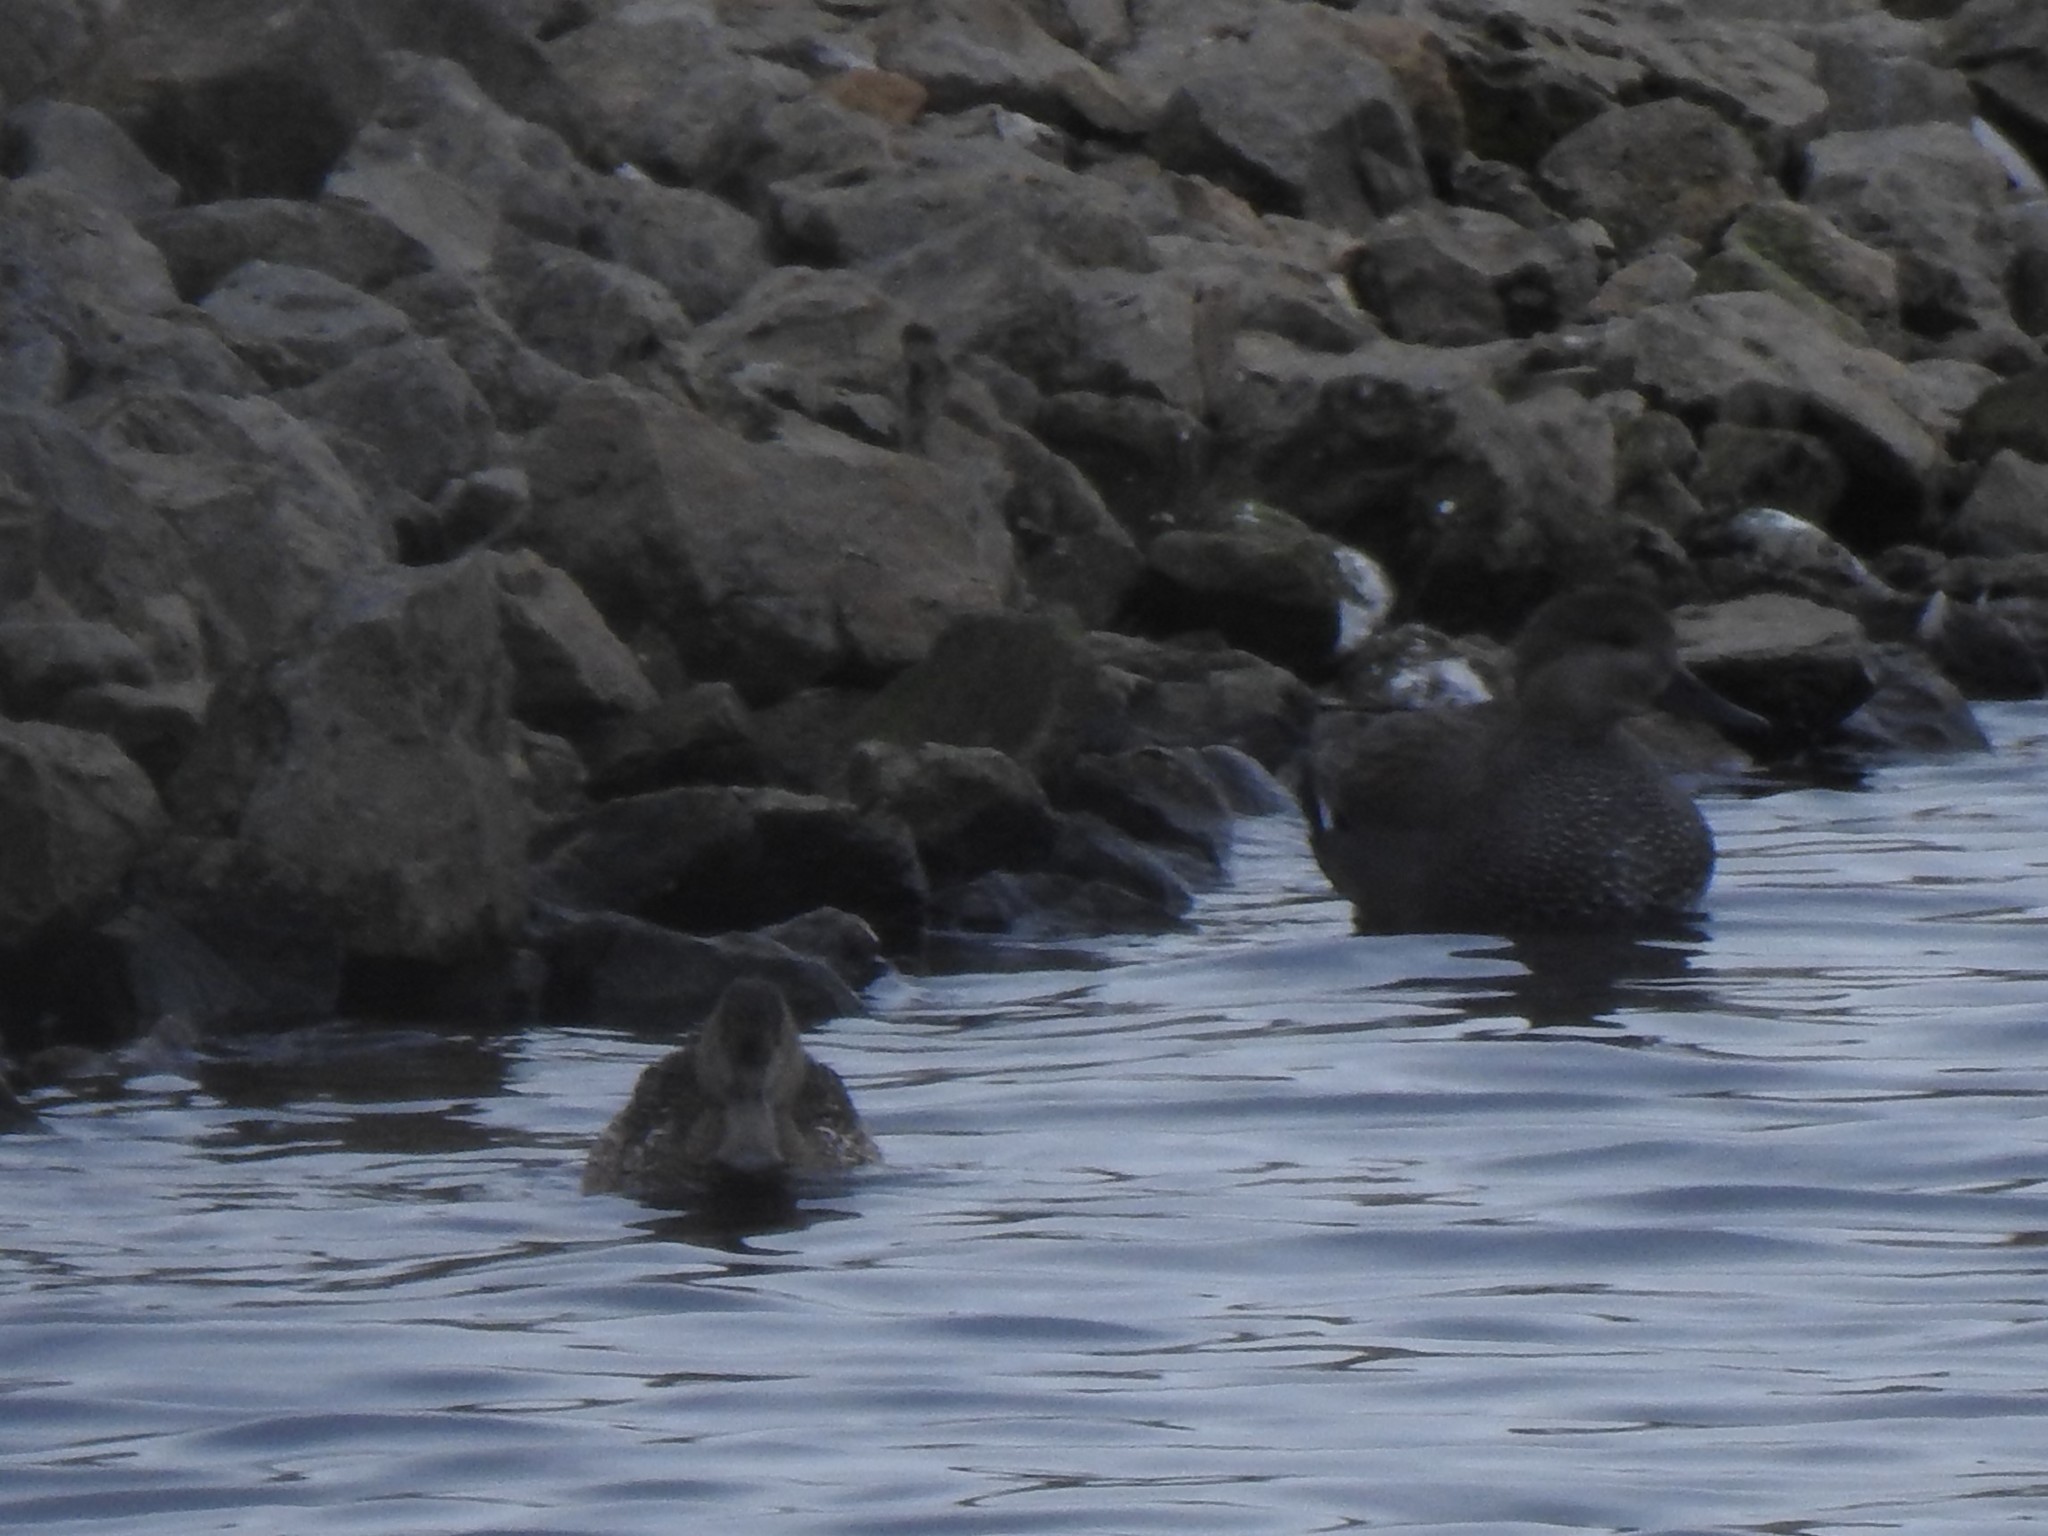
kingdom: Animalia
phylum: Chordata
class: Aves
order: Anseriformes
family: Anatidae
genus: Spatula
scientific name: Spatula clypeata
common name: Northern shoveler
